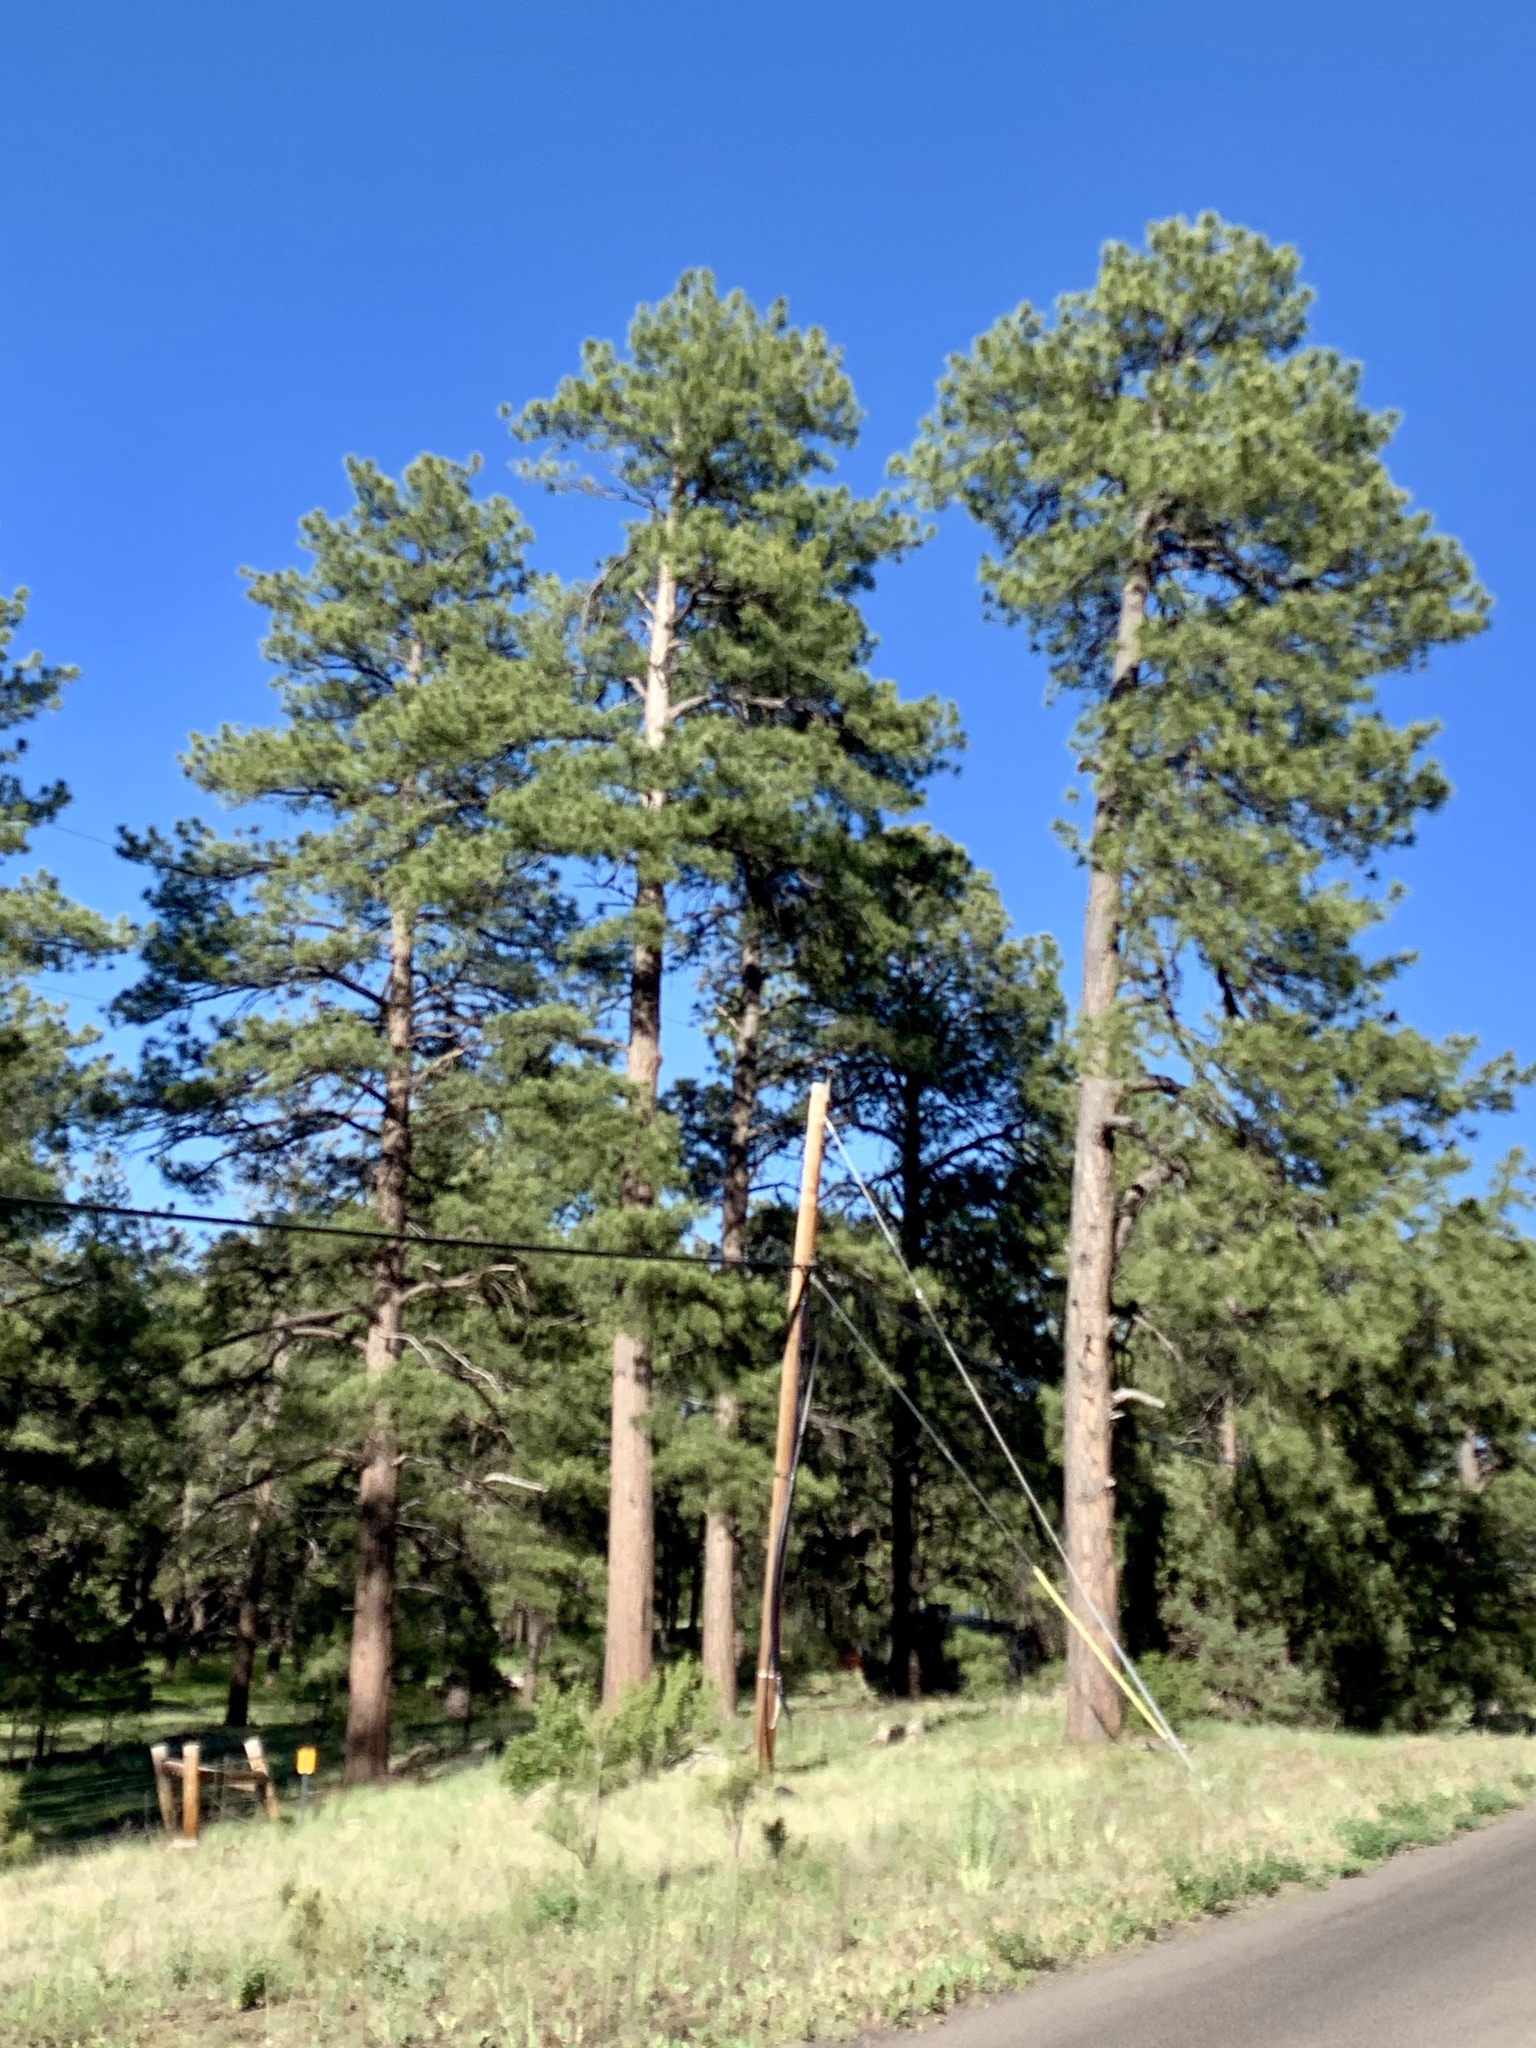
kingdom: Plantae
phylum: Tracheophyta
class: Pinopsida
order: Pinales
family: Pinaceae
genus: Pinus
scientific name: Pinus ponderosa
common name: Western yellow-pine
